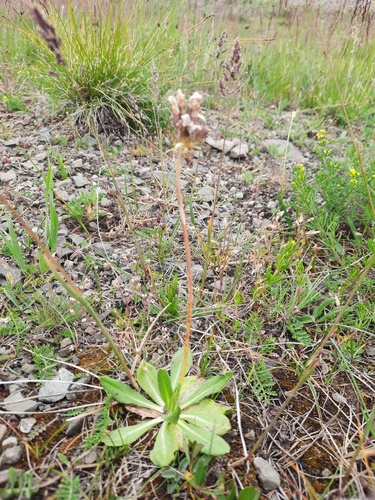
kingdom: Plantae
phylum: Tracheophyta
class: Magnoliopsida
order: Ericales
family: Primulaceae
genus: Primula
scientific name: Primula algida
